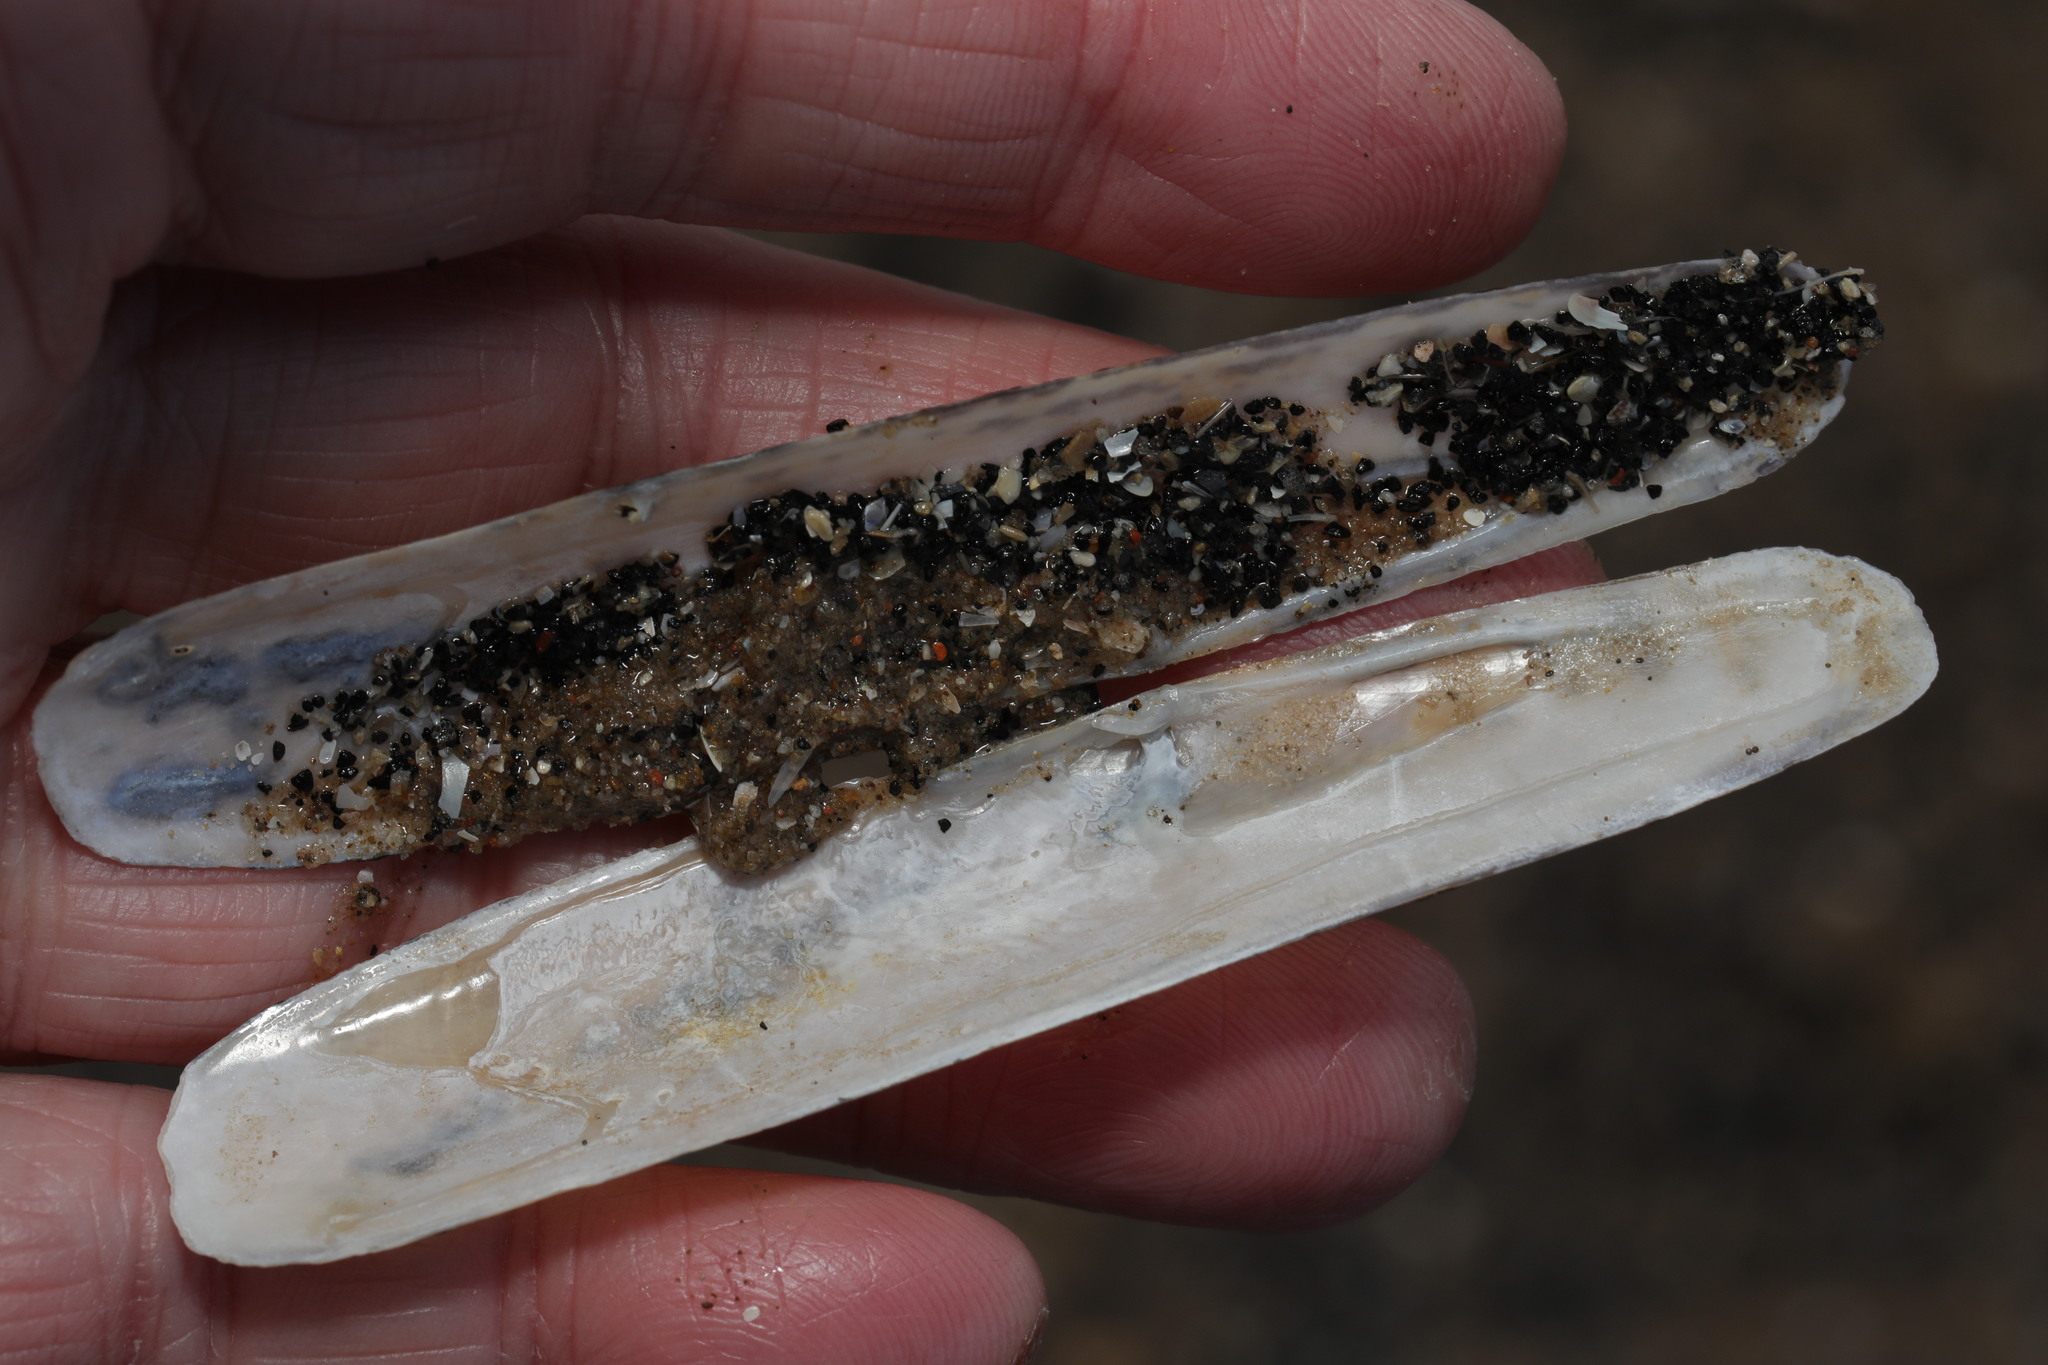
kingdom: Animalia
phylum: Mollusca
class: Bivalvia
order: Adapedonta
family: Pharidae
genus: Pharus
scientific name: Pharus legumen
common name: Bean razor clam
